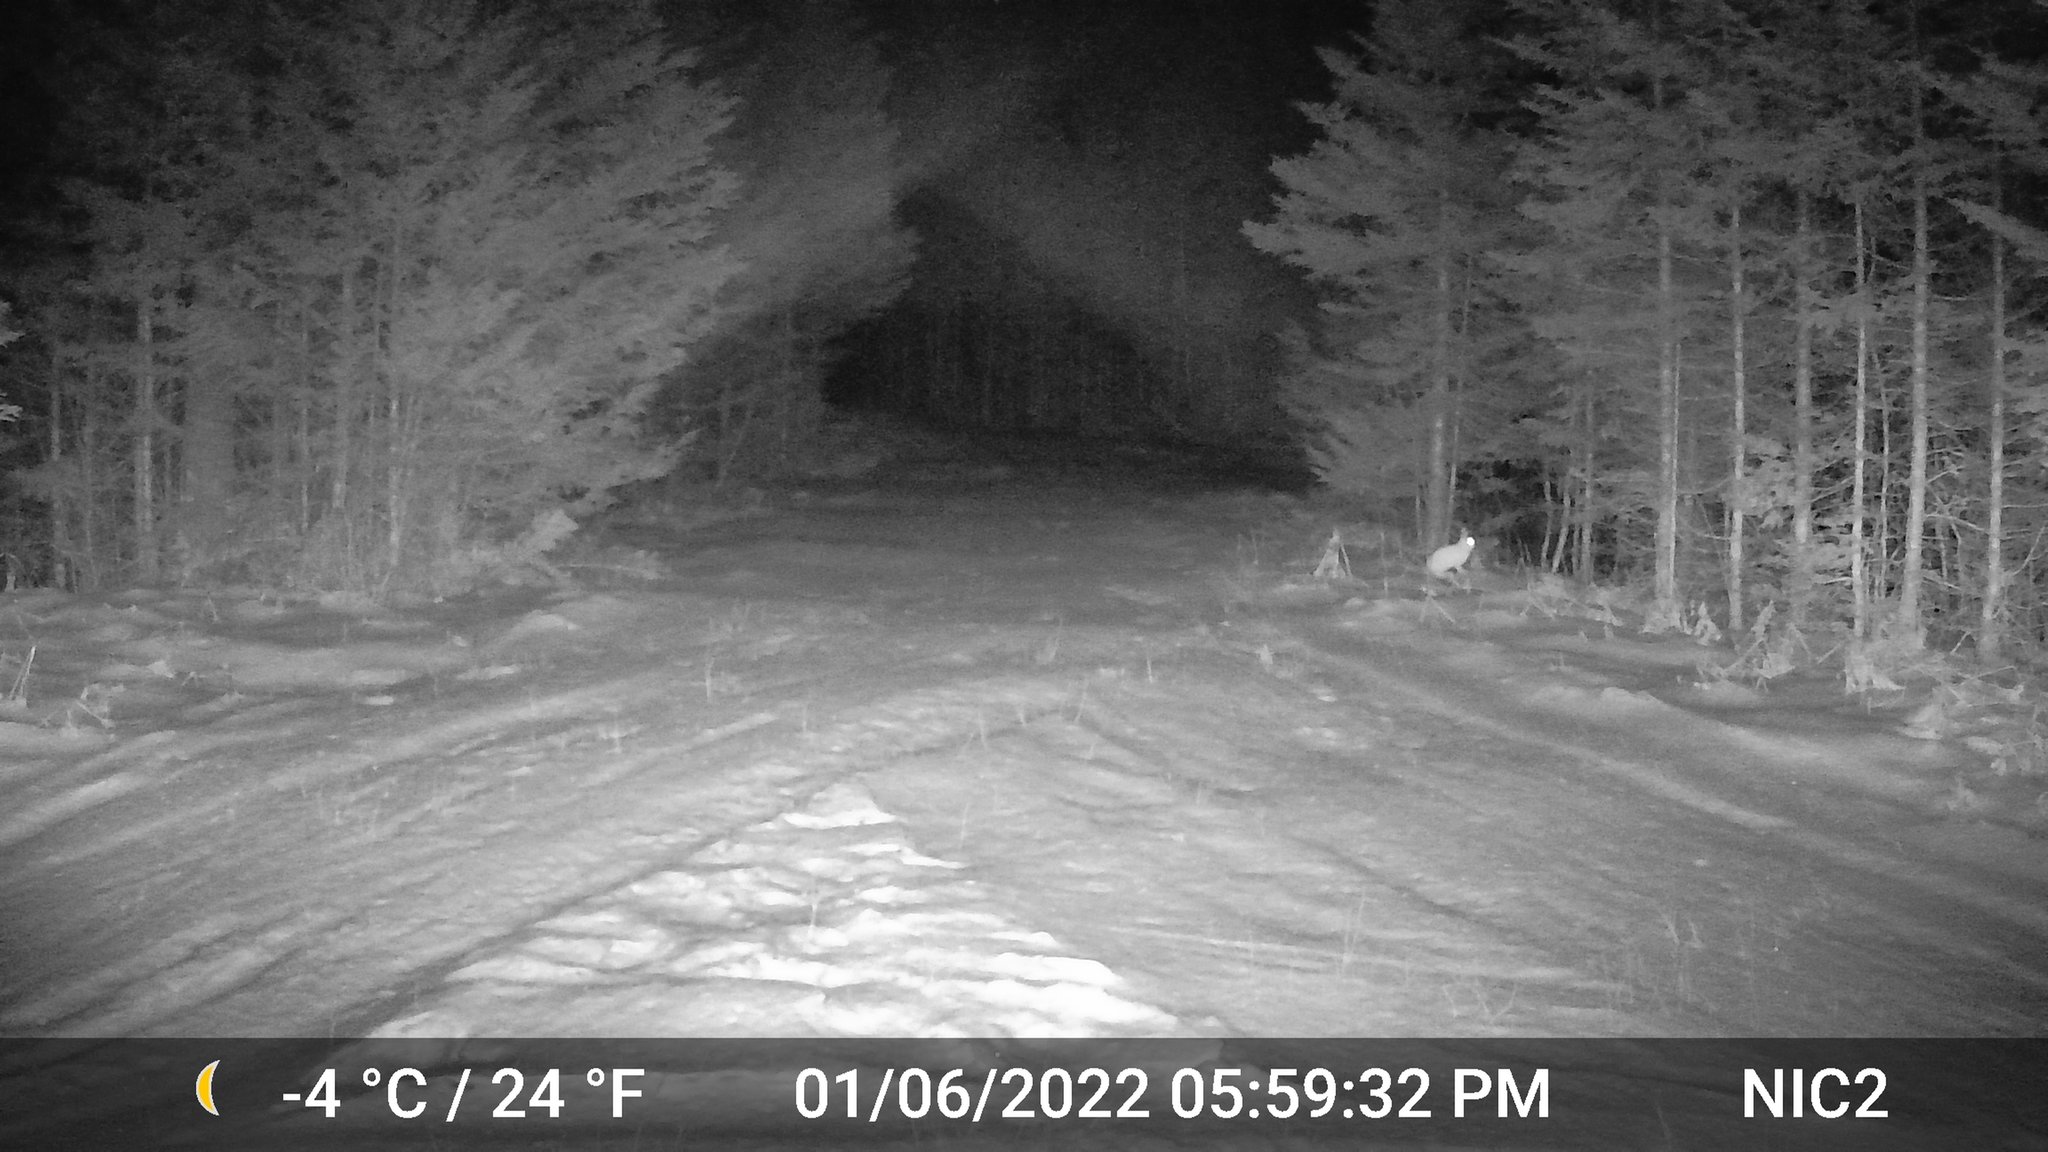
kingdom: Animalia
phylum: Chordata
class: Mammalia
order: Lagomorpha
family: Leporidae
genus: Lepus
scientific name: Lepus americanus
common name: Snowshoe hare
